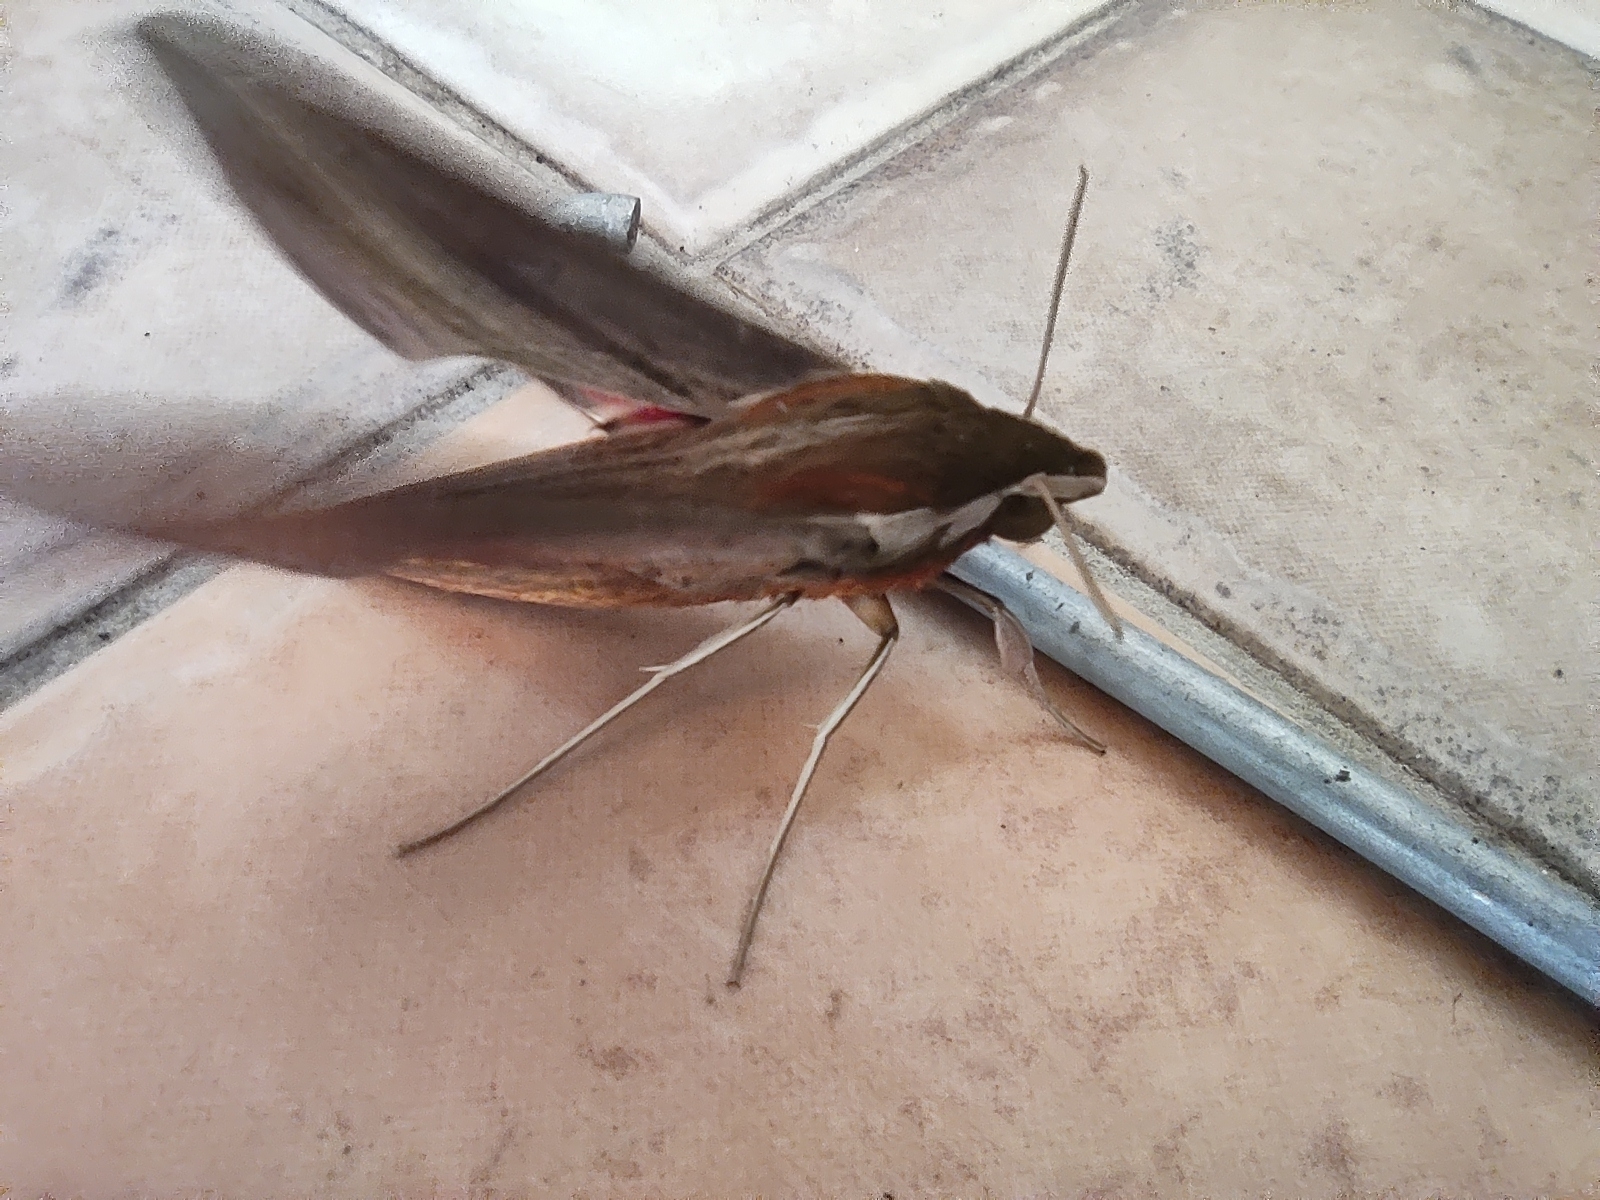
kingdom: Animalia
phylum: Arthropoda
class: Insecta
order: Lepidoptera
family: Sphingidae
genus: Hippotion
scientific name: Hippotion eson
